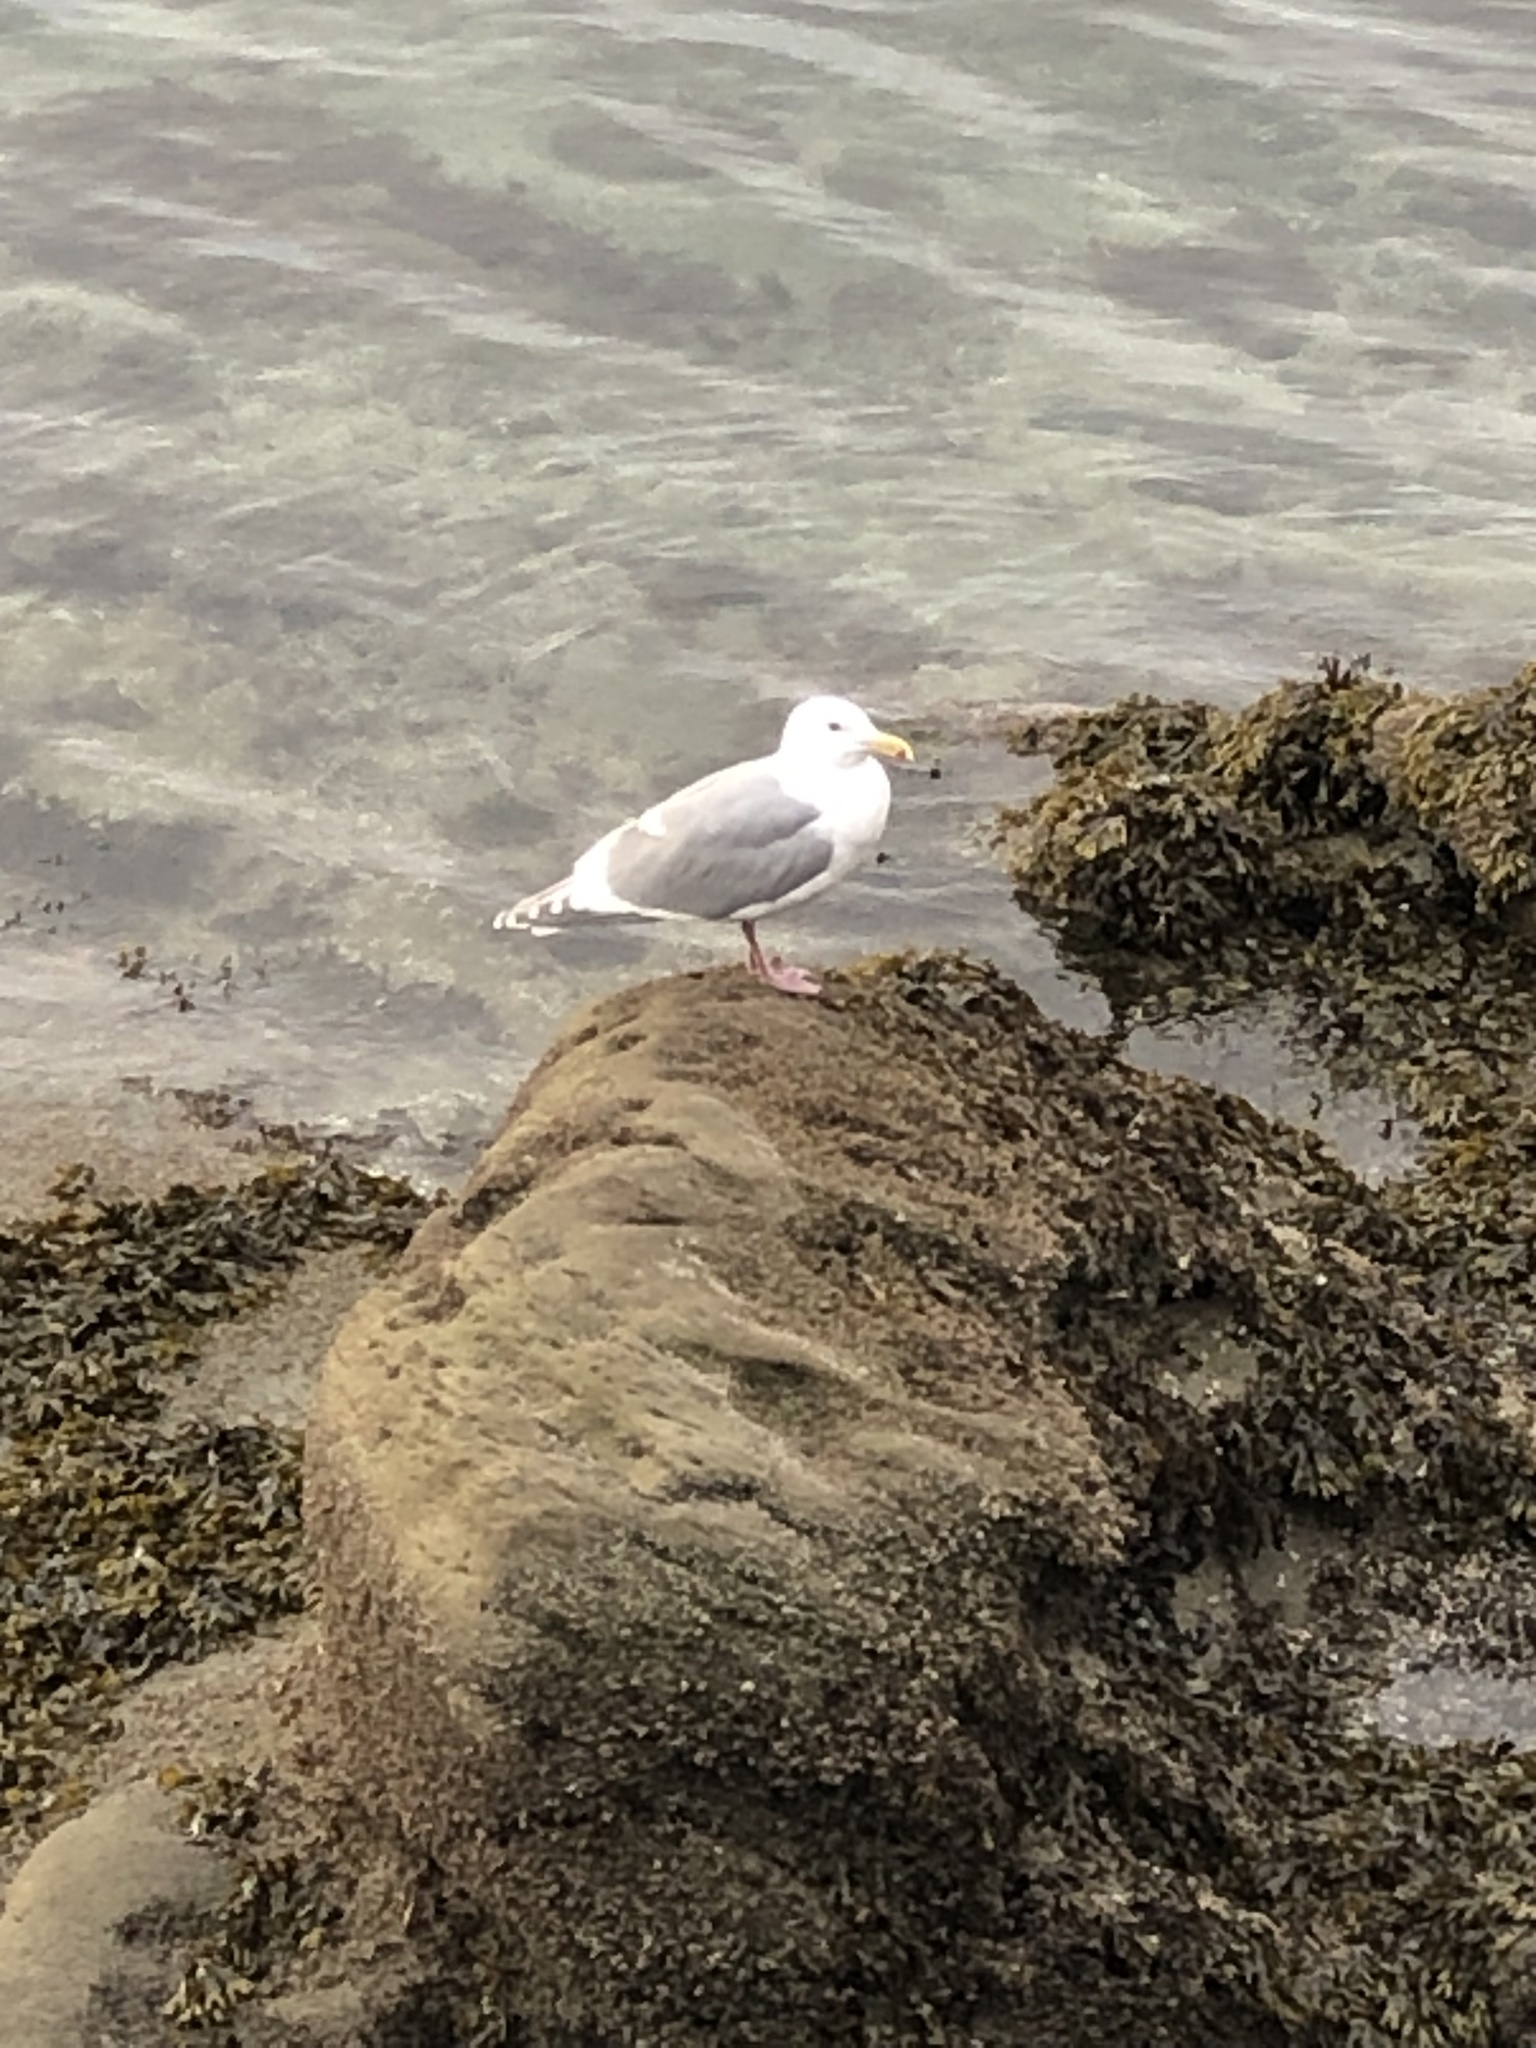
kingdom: Animalia
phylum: Chordata
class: Aves
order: Charadriiformes
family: Laridae
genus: Larus
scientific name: Larus glaucescens
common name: Glaucous-winged gull
